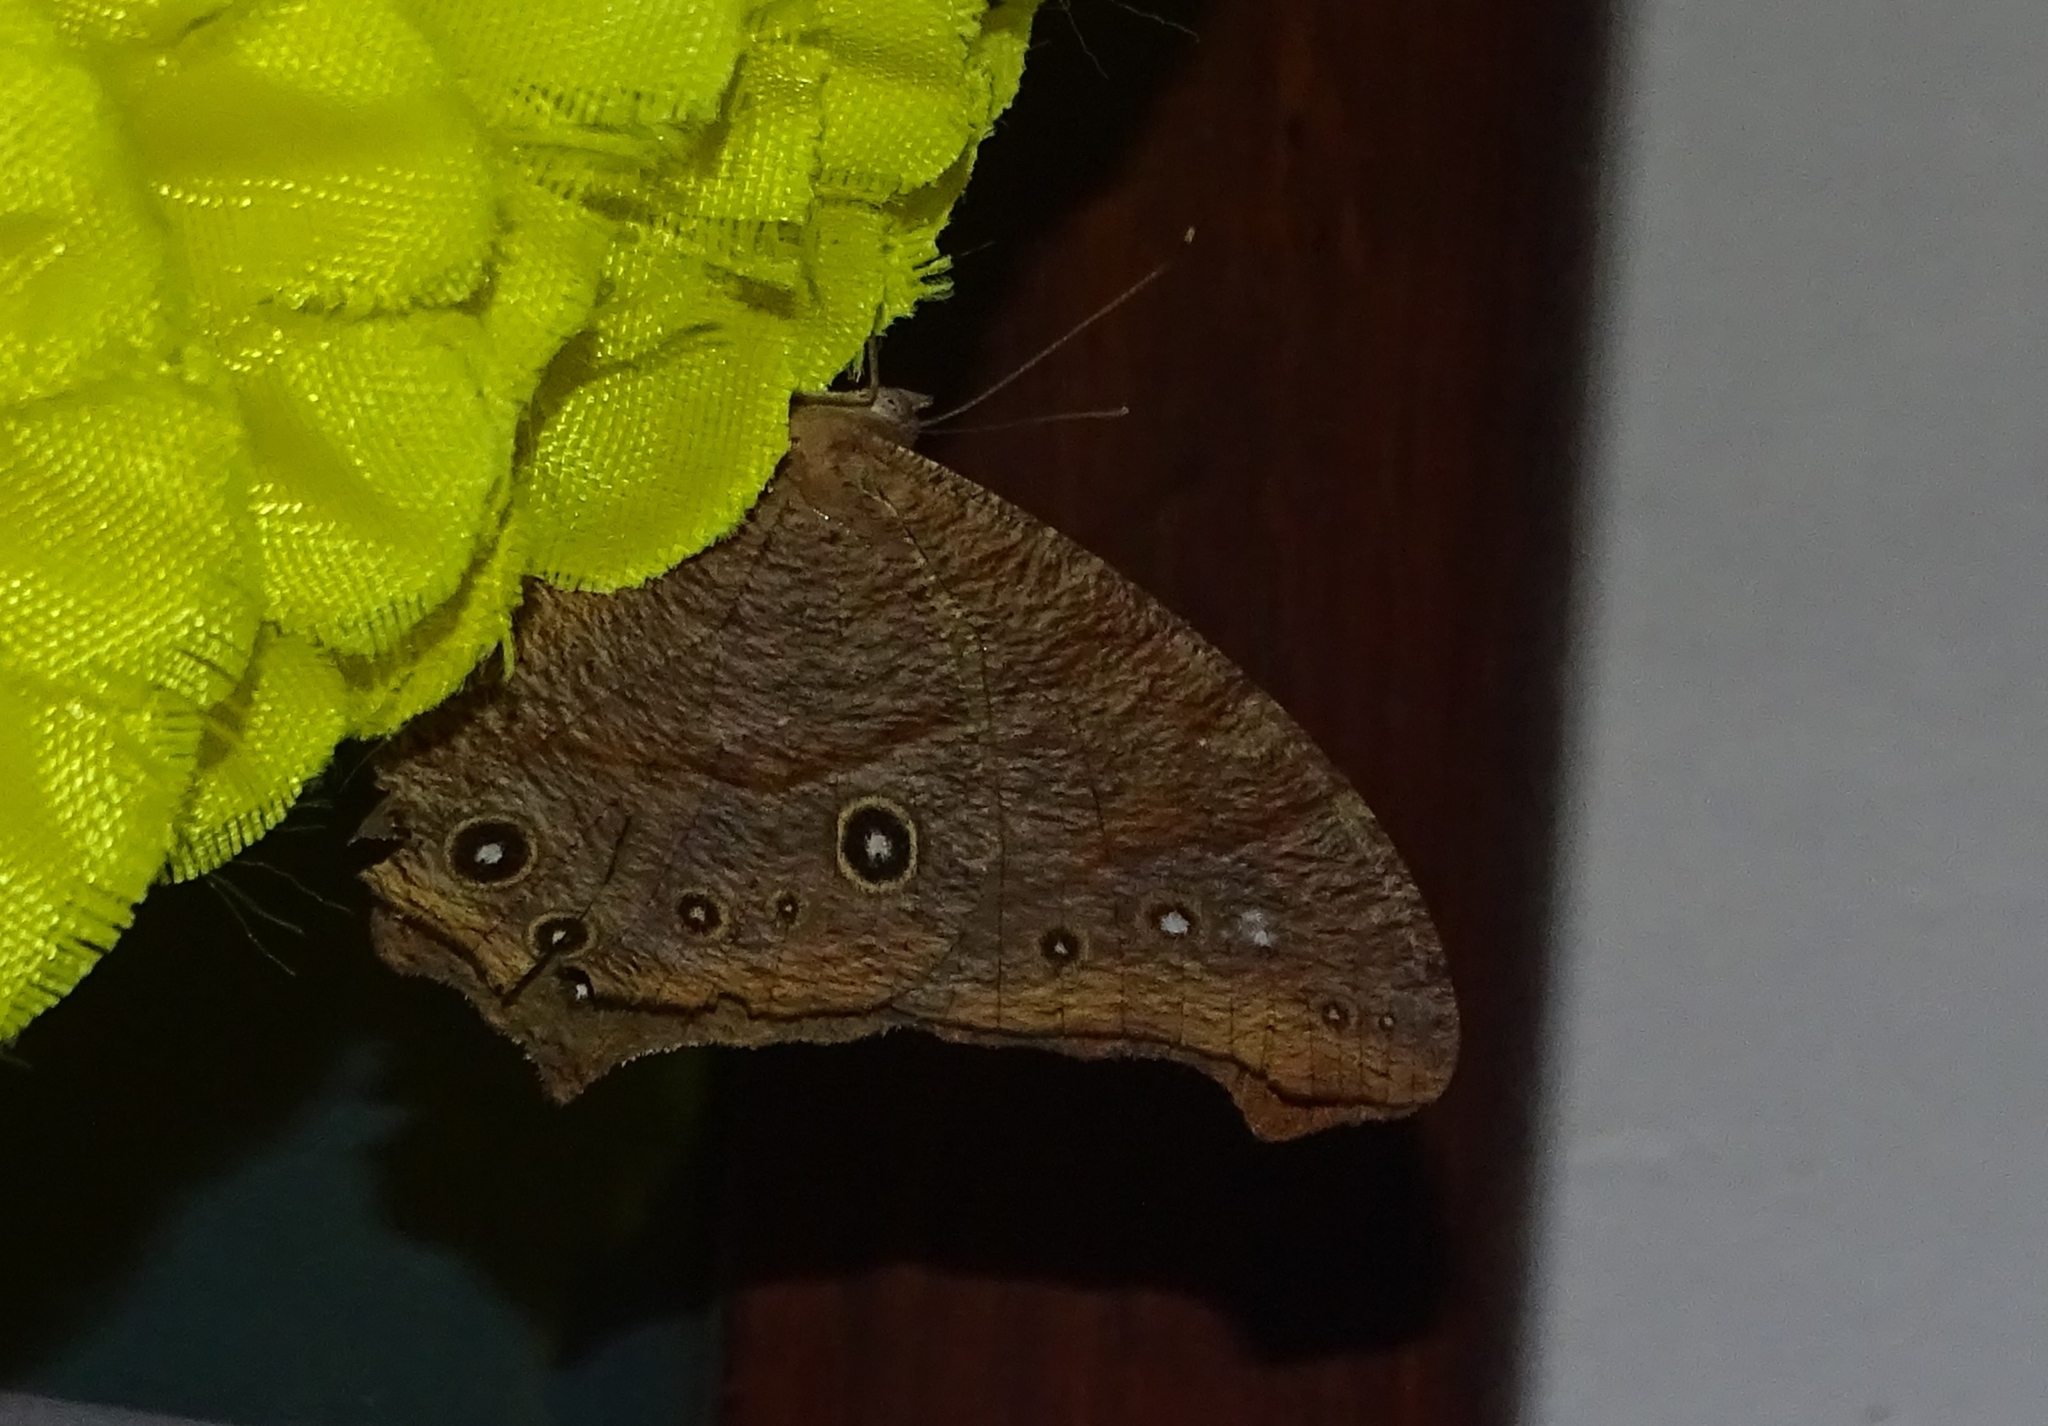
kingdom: Animalia
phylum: Arthropoda
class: Insecta
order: Lepidoptera
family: Nymphalidae
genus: Melanitis
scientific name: Melanitis leda
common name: Twilight brown
